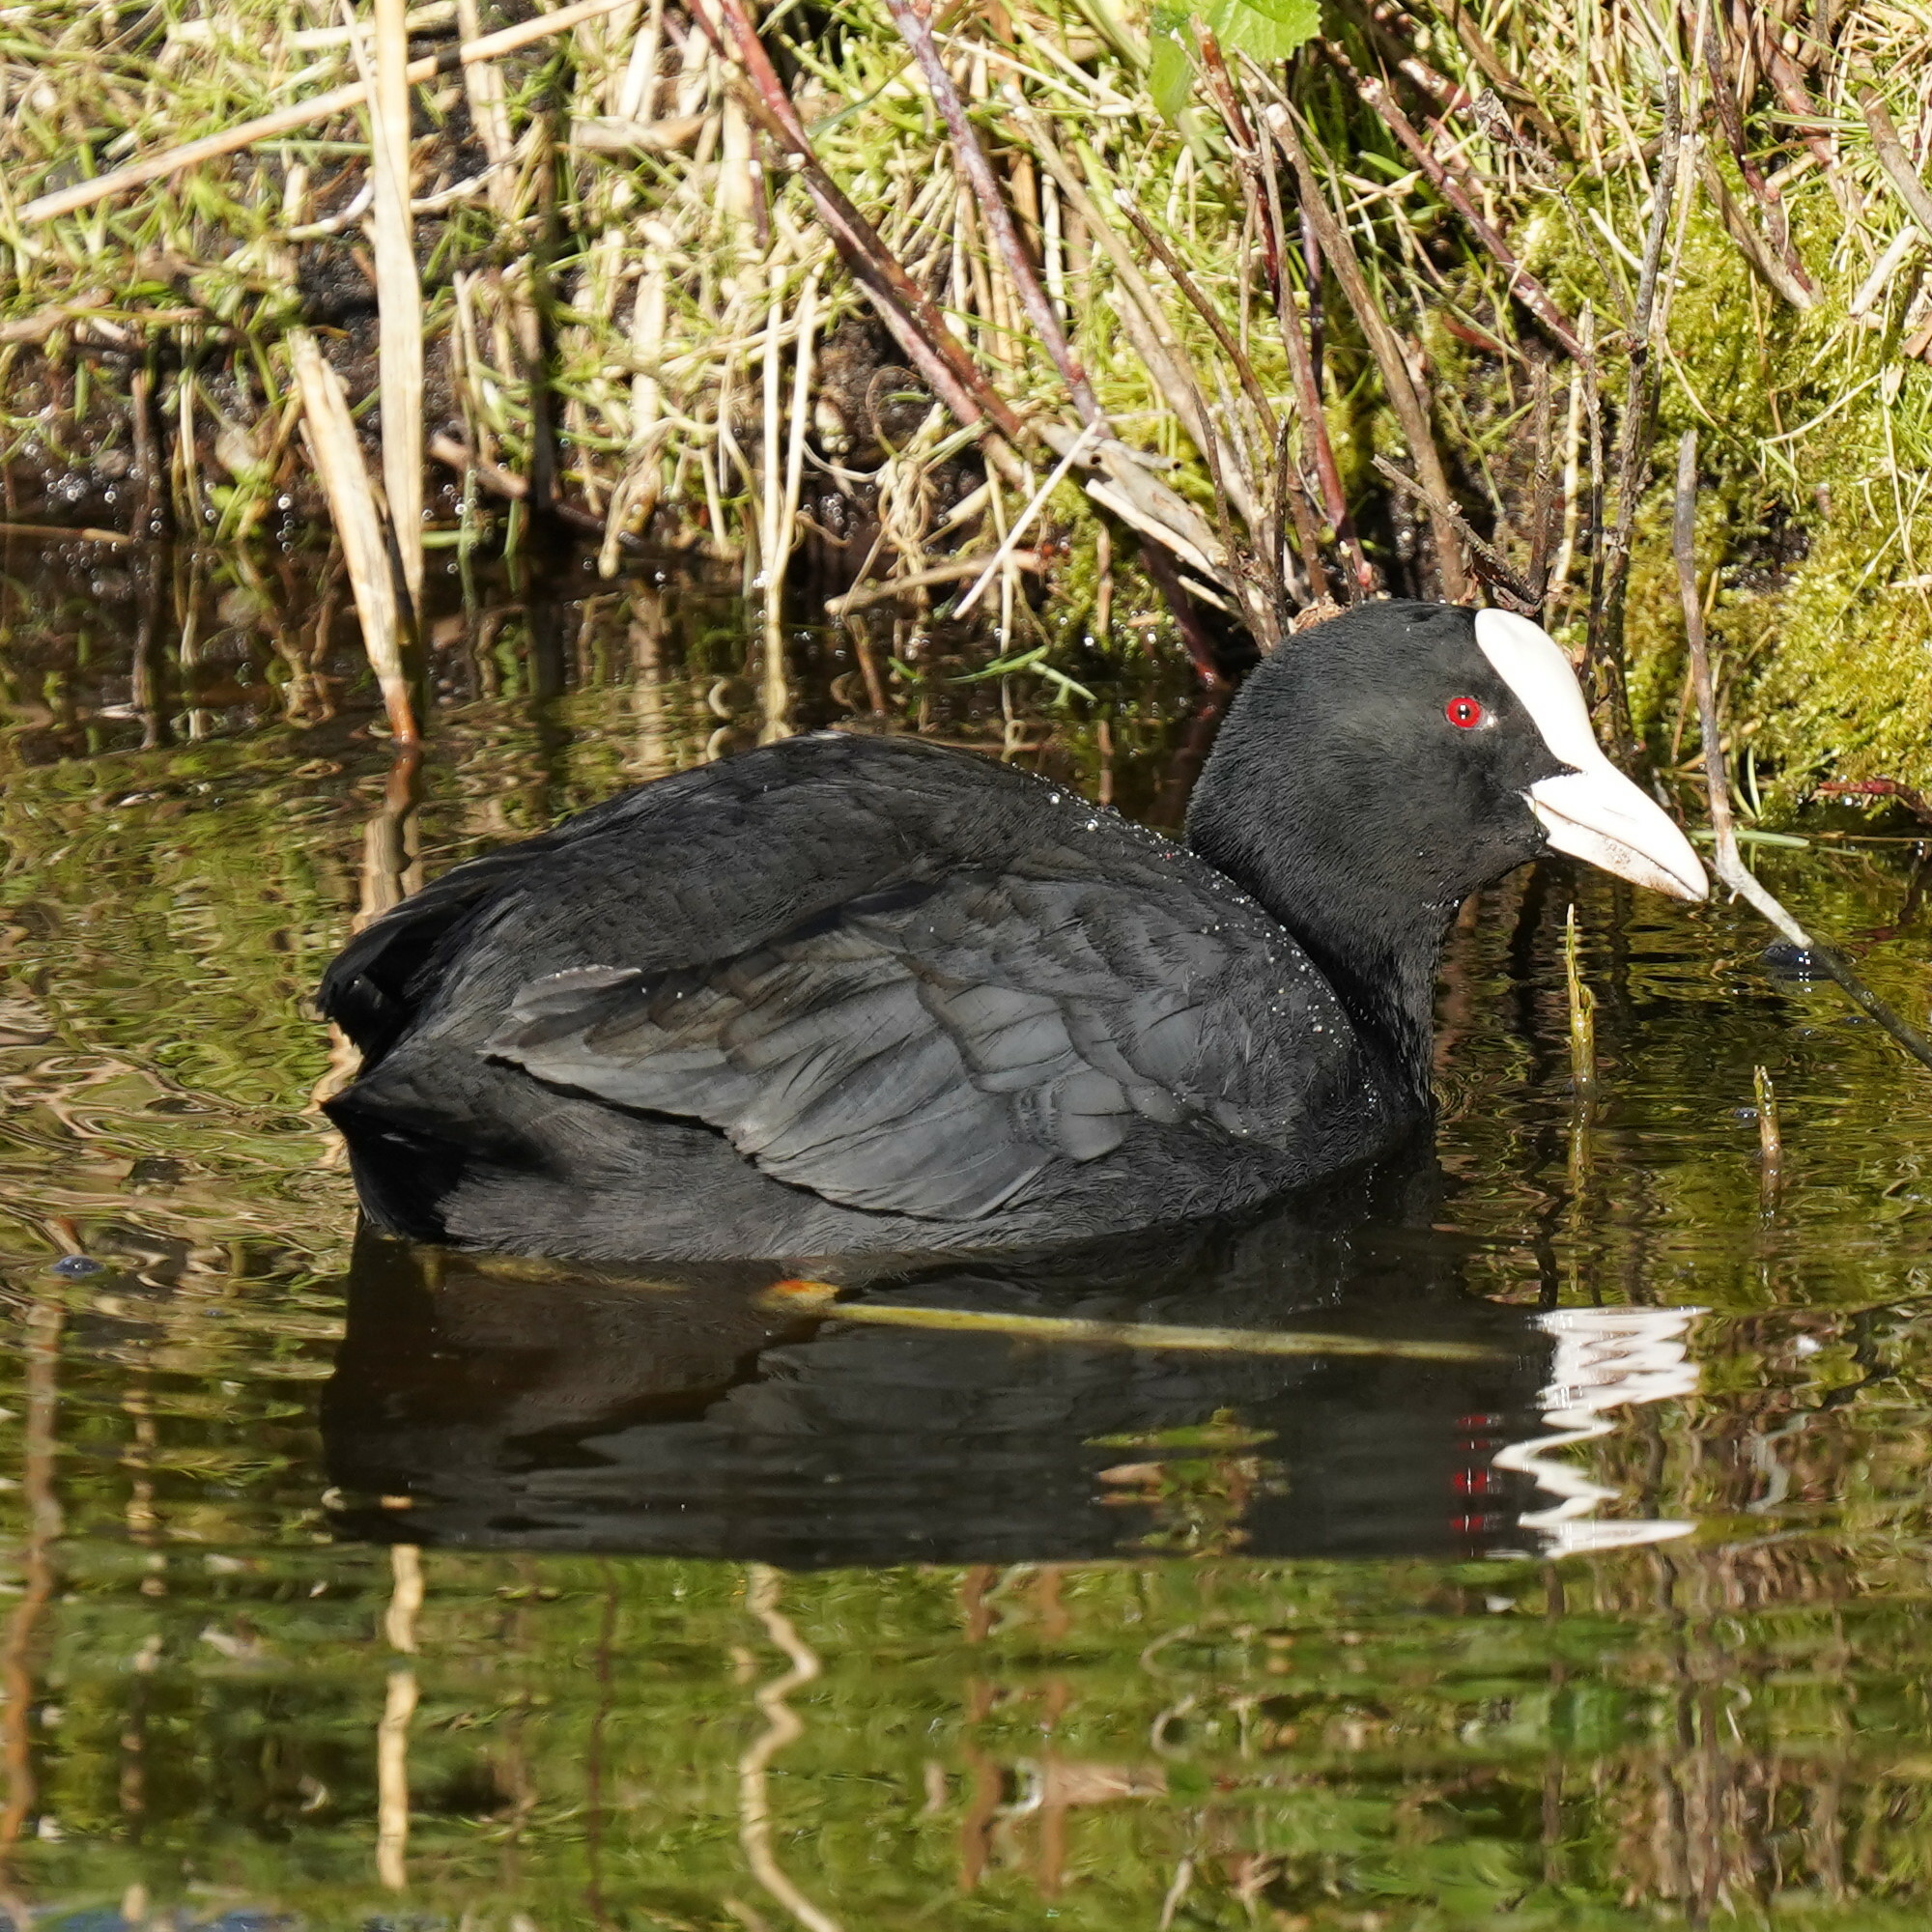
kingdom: Animalia
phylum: Chordata
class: Aves
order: Gruiformes
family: Rallidae
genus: Fulica
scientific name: Fulica atra
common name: Eurasian coot
